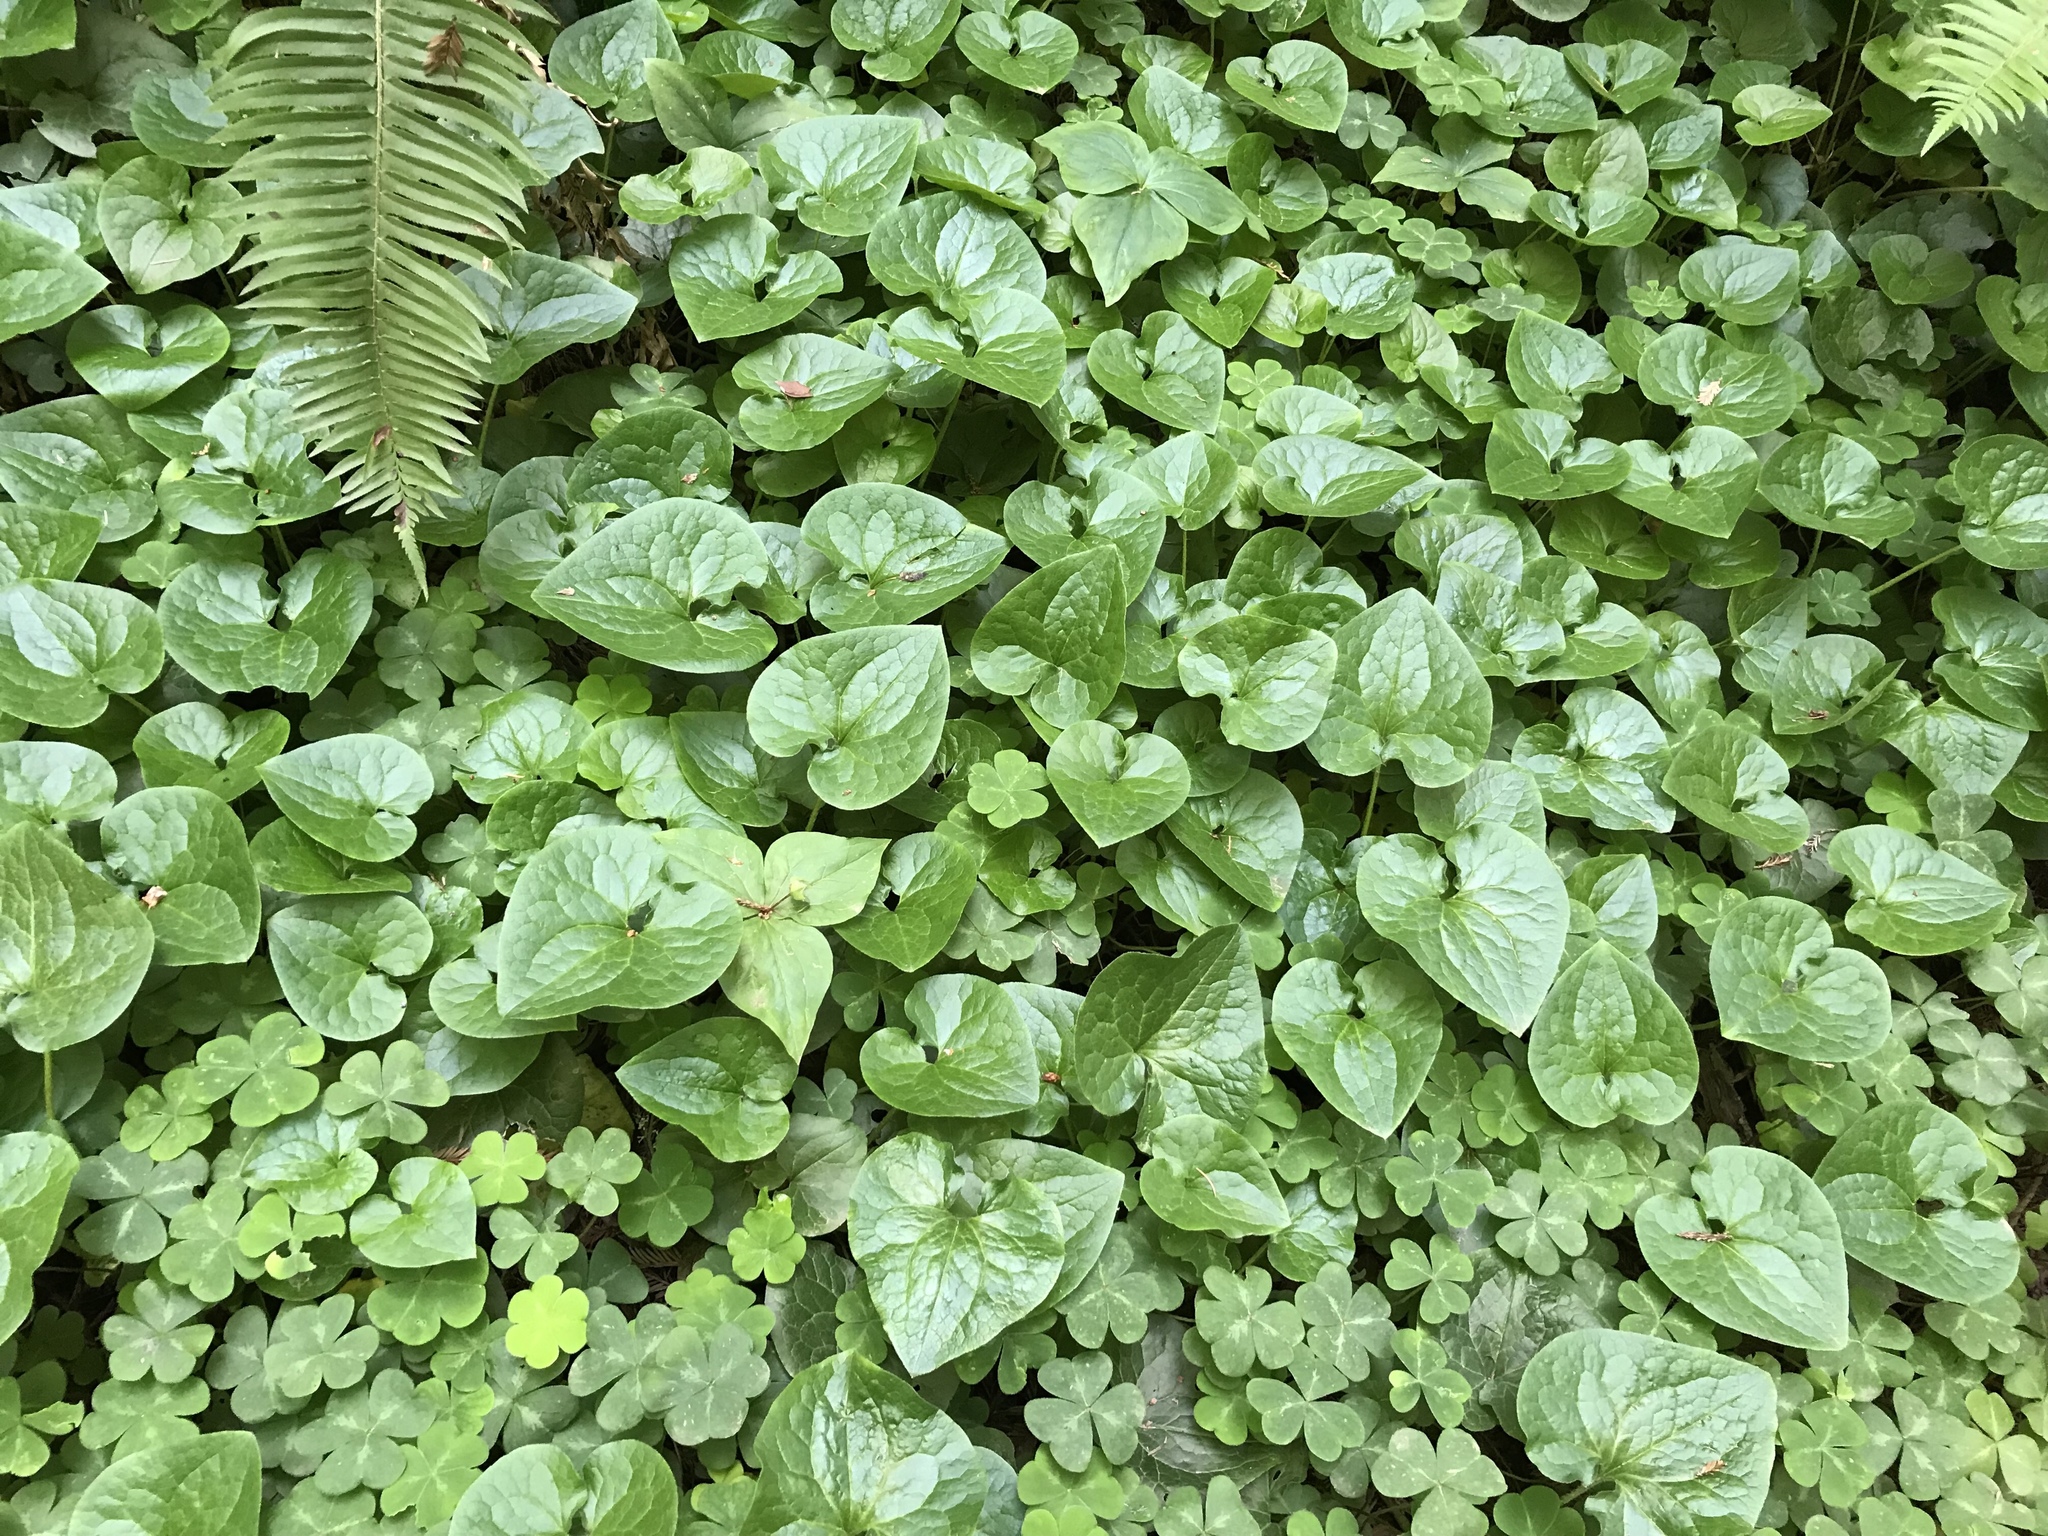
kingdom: Plantae
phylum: Tracheophyta
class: Magnoliopsida
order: Piperales
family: Aristolochiaceae
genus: Asarum
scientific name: Asarum caudatum
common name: Wild ginger
